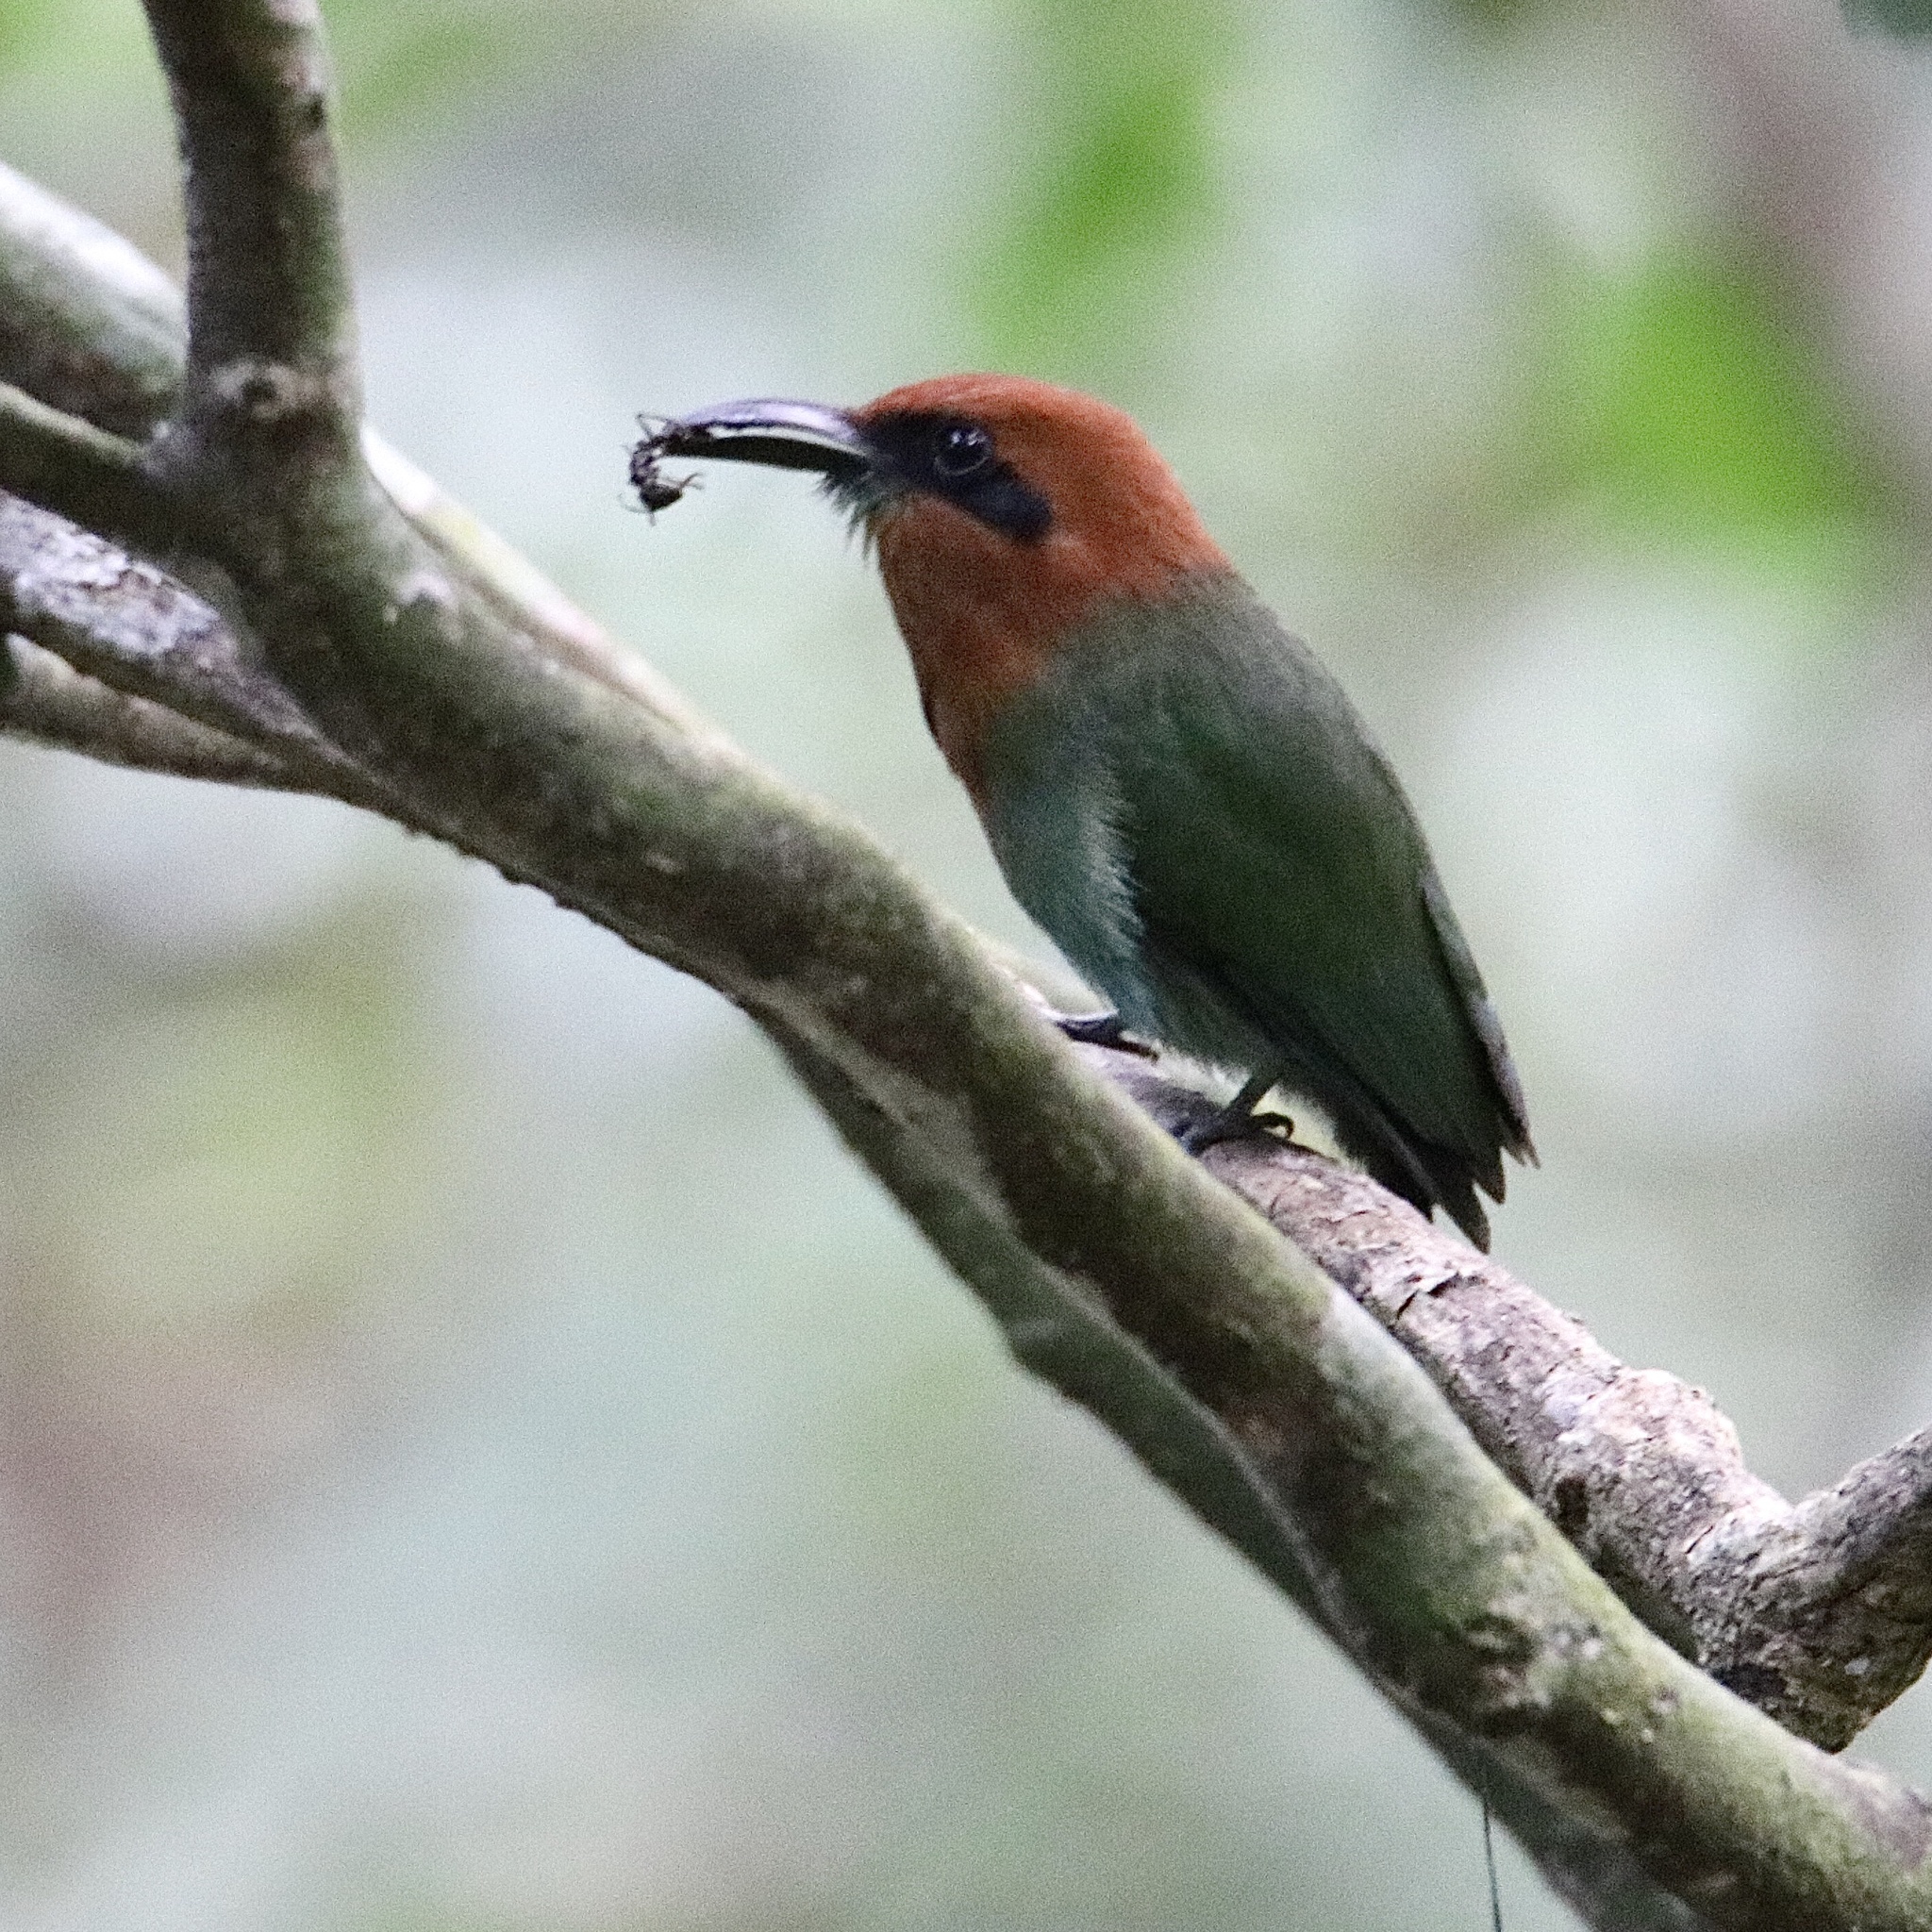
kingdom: Animalia
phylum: Chordata
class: Aves
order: Coraciiformes
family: Momotidae
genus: Electron
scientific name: Electron platyrhynchum
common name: Broad-billed motmot
